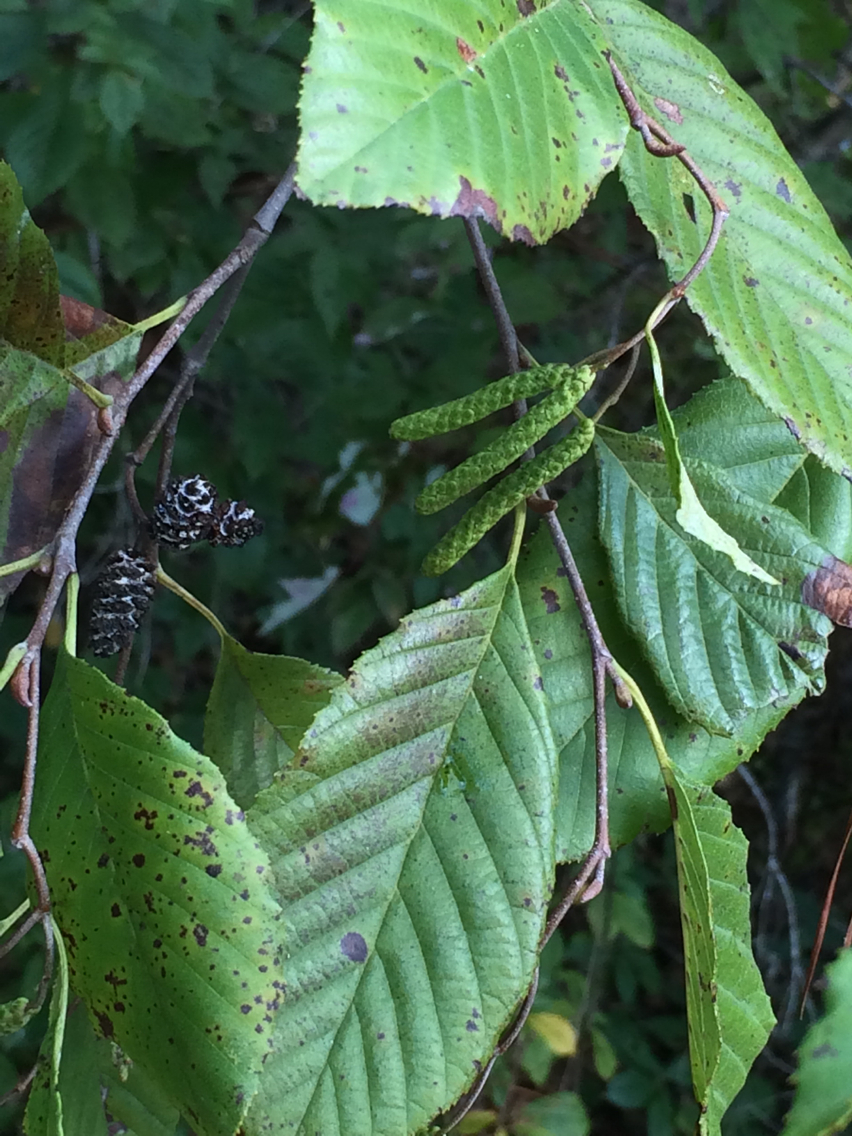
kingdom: Plantae
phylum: Tracheophyta
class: Magnoliopsida
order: Fagales
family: Betulaceae
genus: Alnus
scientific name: Alnus serrulata
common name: Hazel alder
